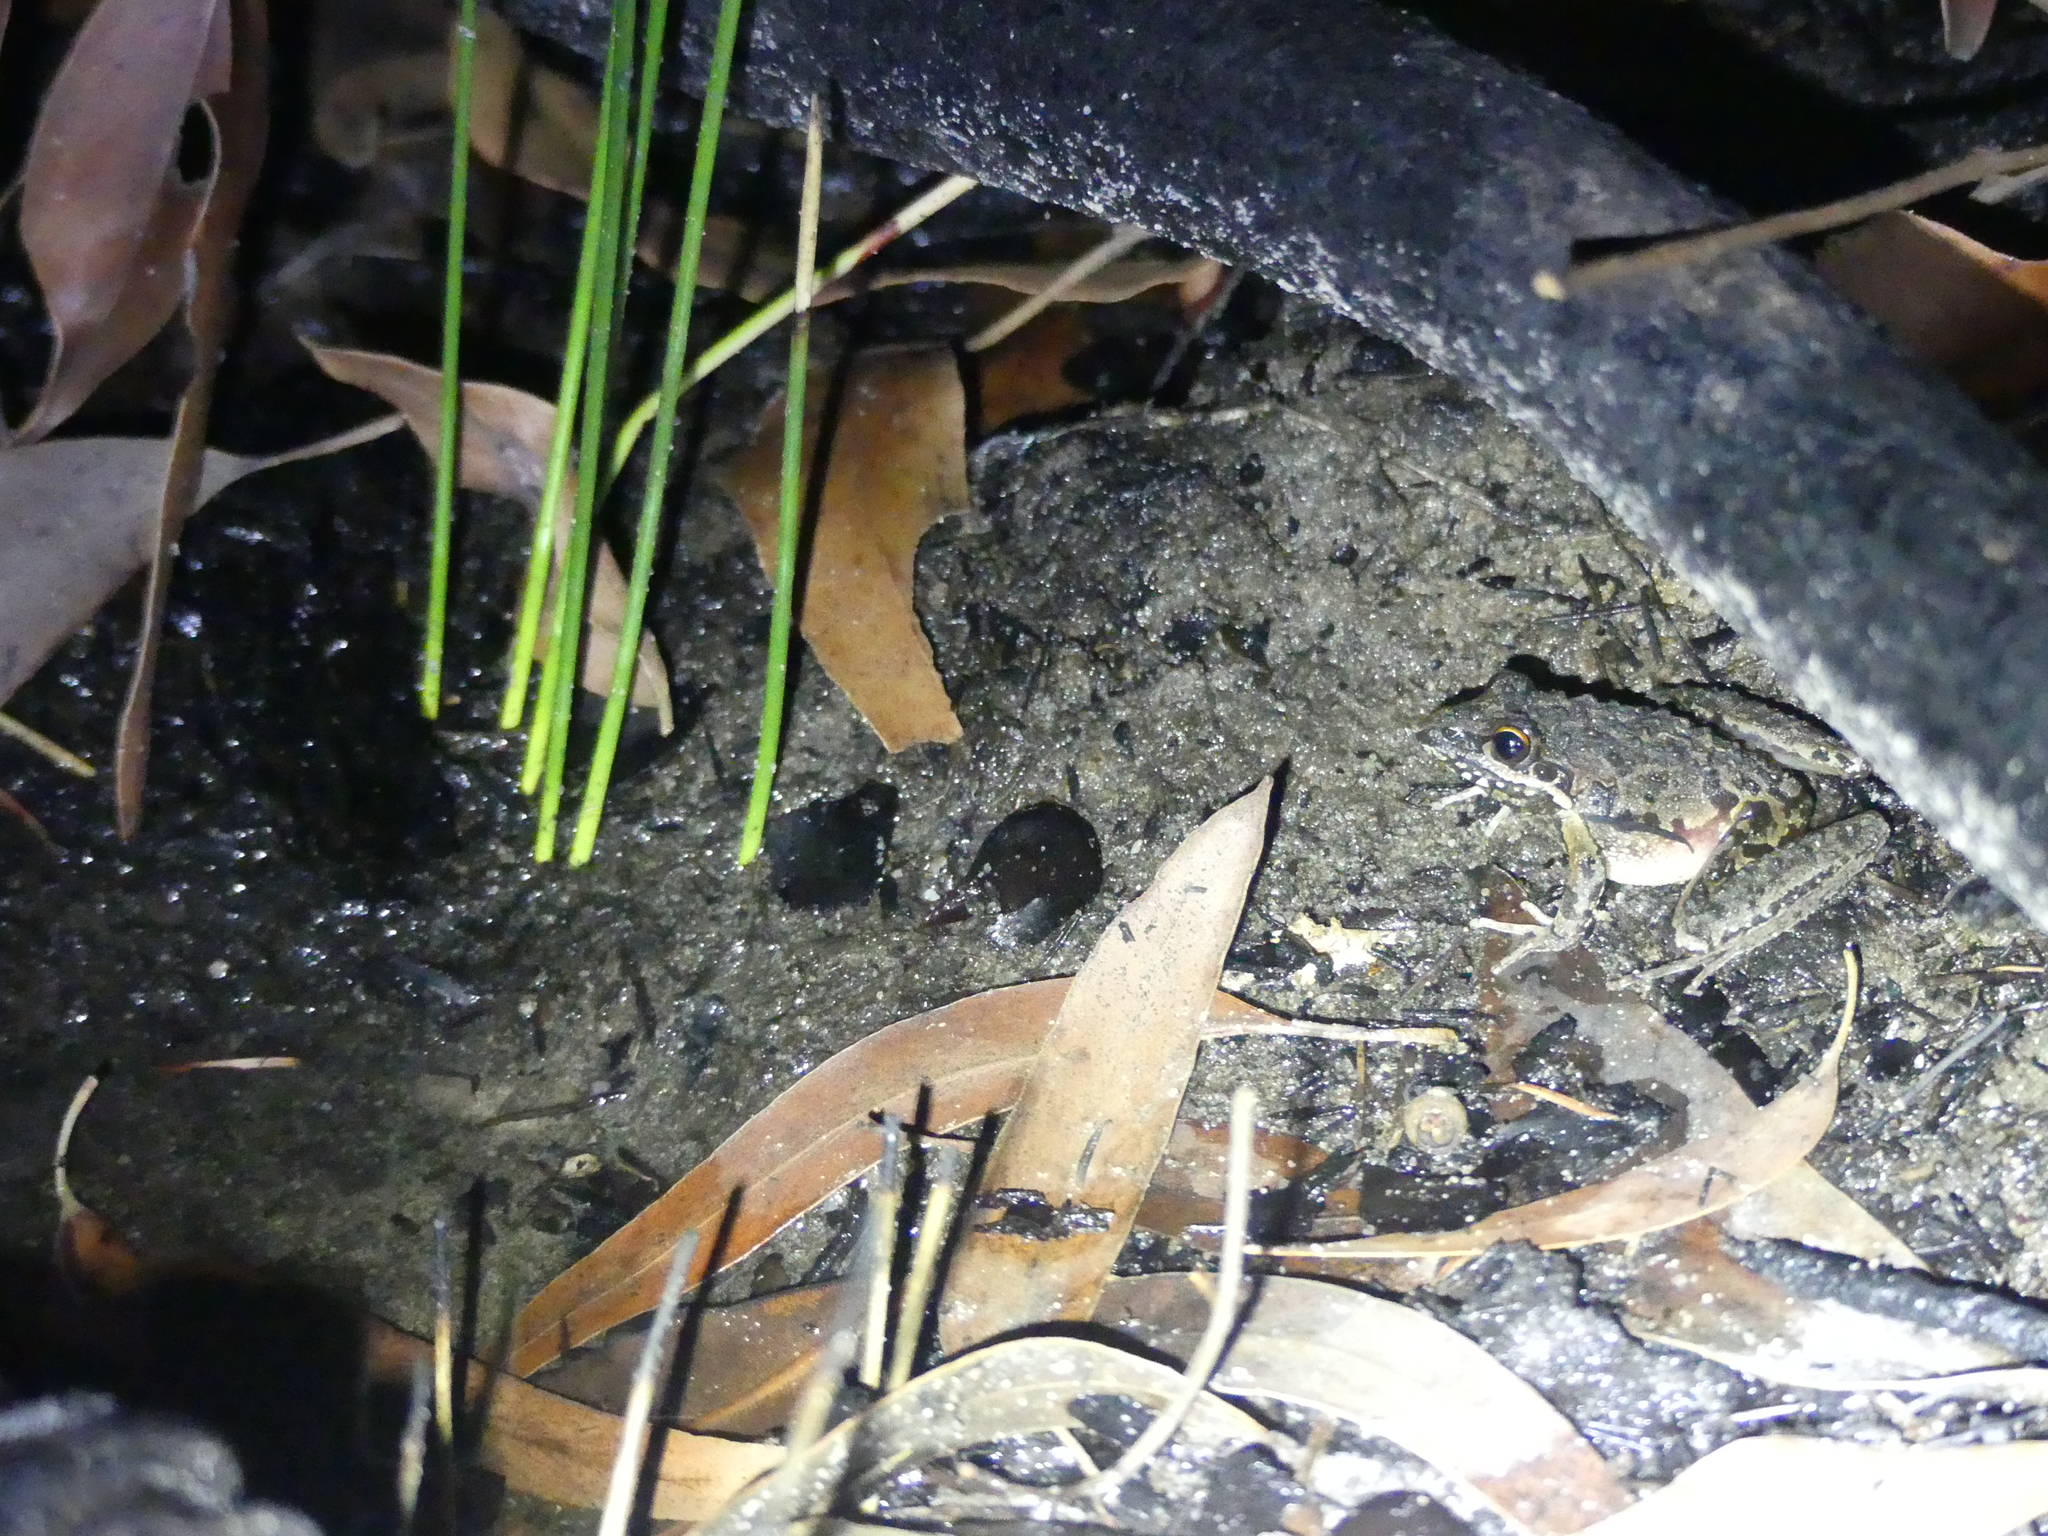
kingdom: Animalia
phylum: Chordata
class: Amphibia
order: Anura
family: Pelodryadidae
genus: Litoria
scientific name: Litoria freycineti
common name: Freycinet’s frog
